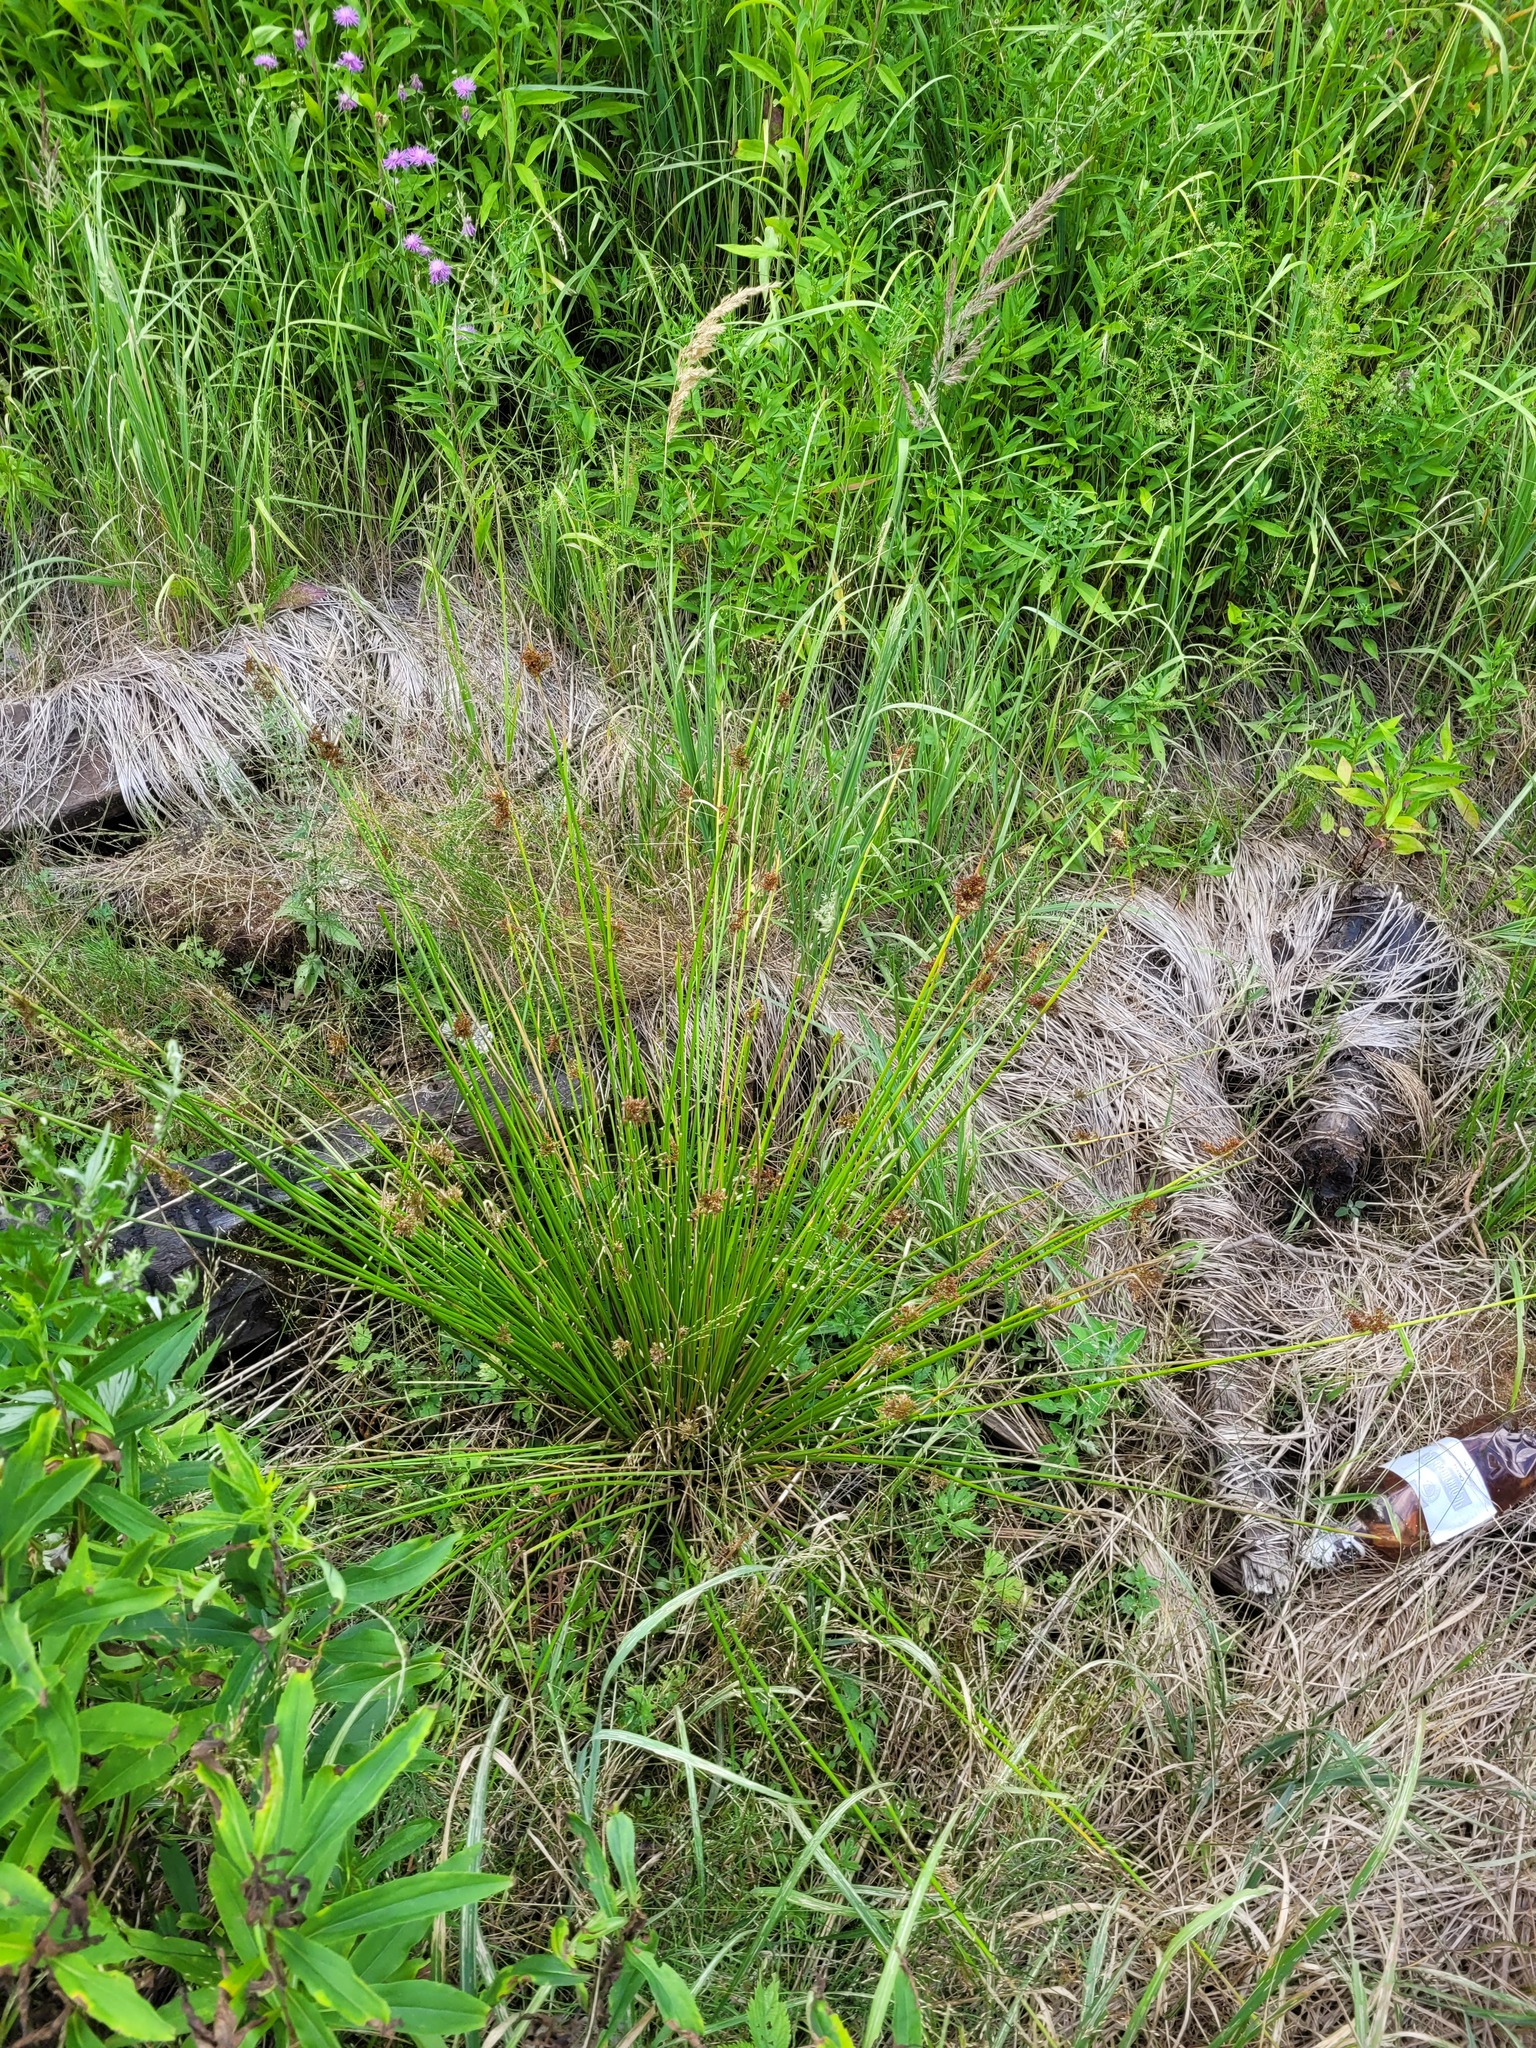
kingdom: Plantae
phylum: Tracheophyta
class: Liliopsida
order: Poales
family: Juncaceae
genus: Juncus
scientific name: Juncus effusus
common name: Soft rush
